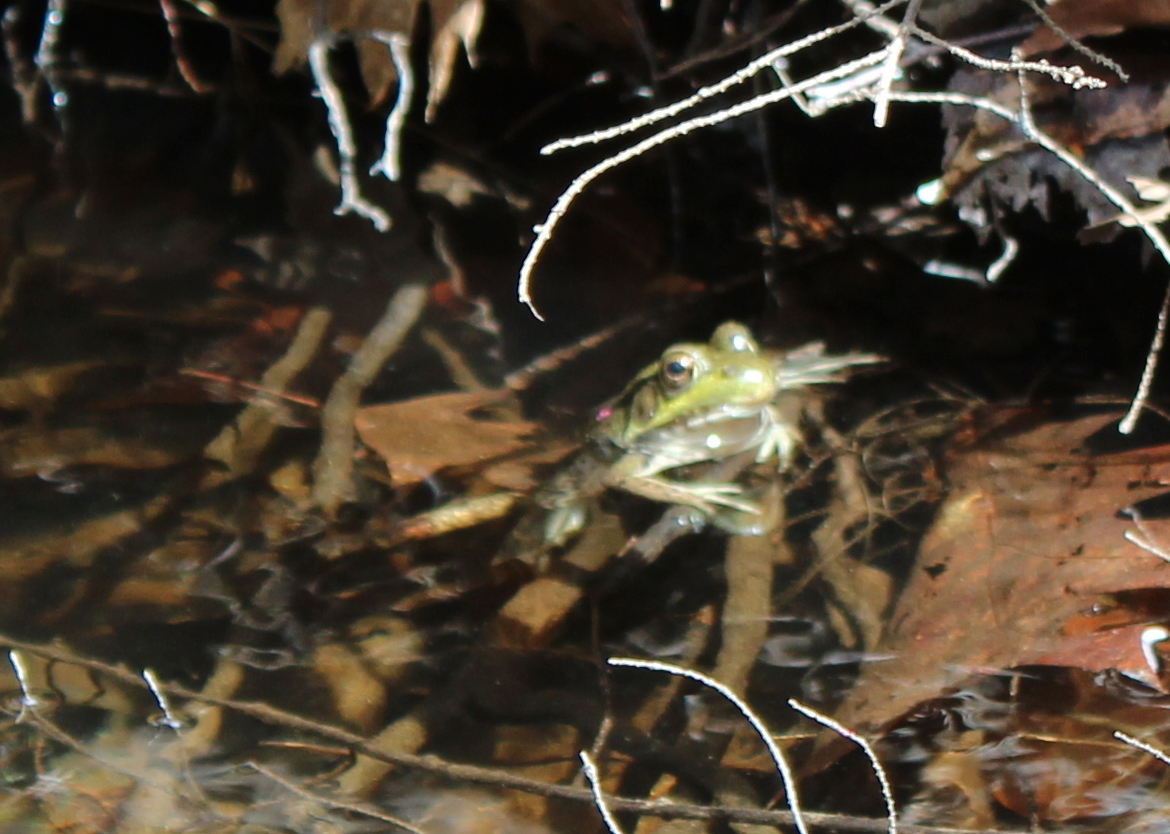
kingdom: Animalia
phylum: Chordata
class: Amphibia
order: Anura
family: Ranidae
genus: Lithobates
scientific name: Lithobates clamitans
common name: Green frog
